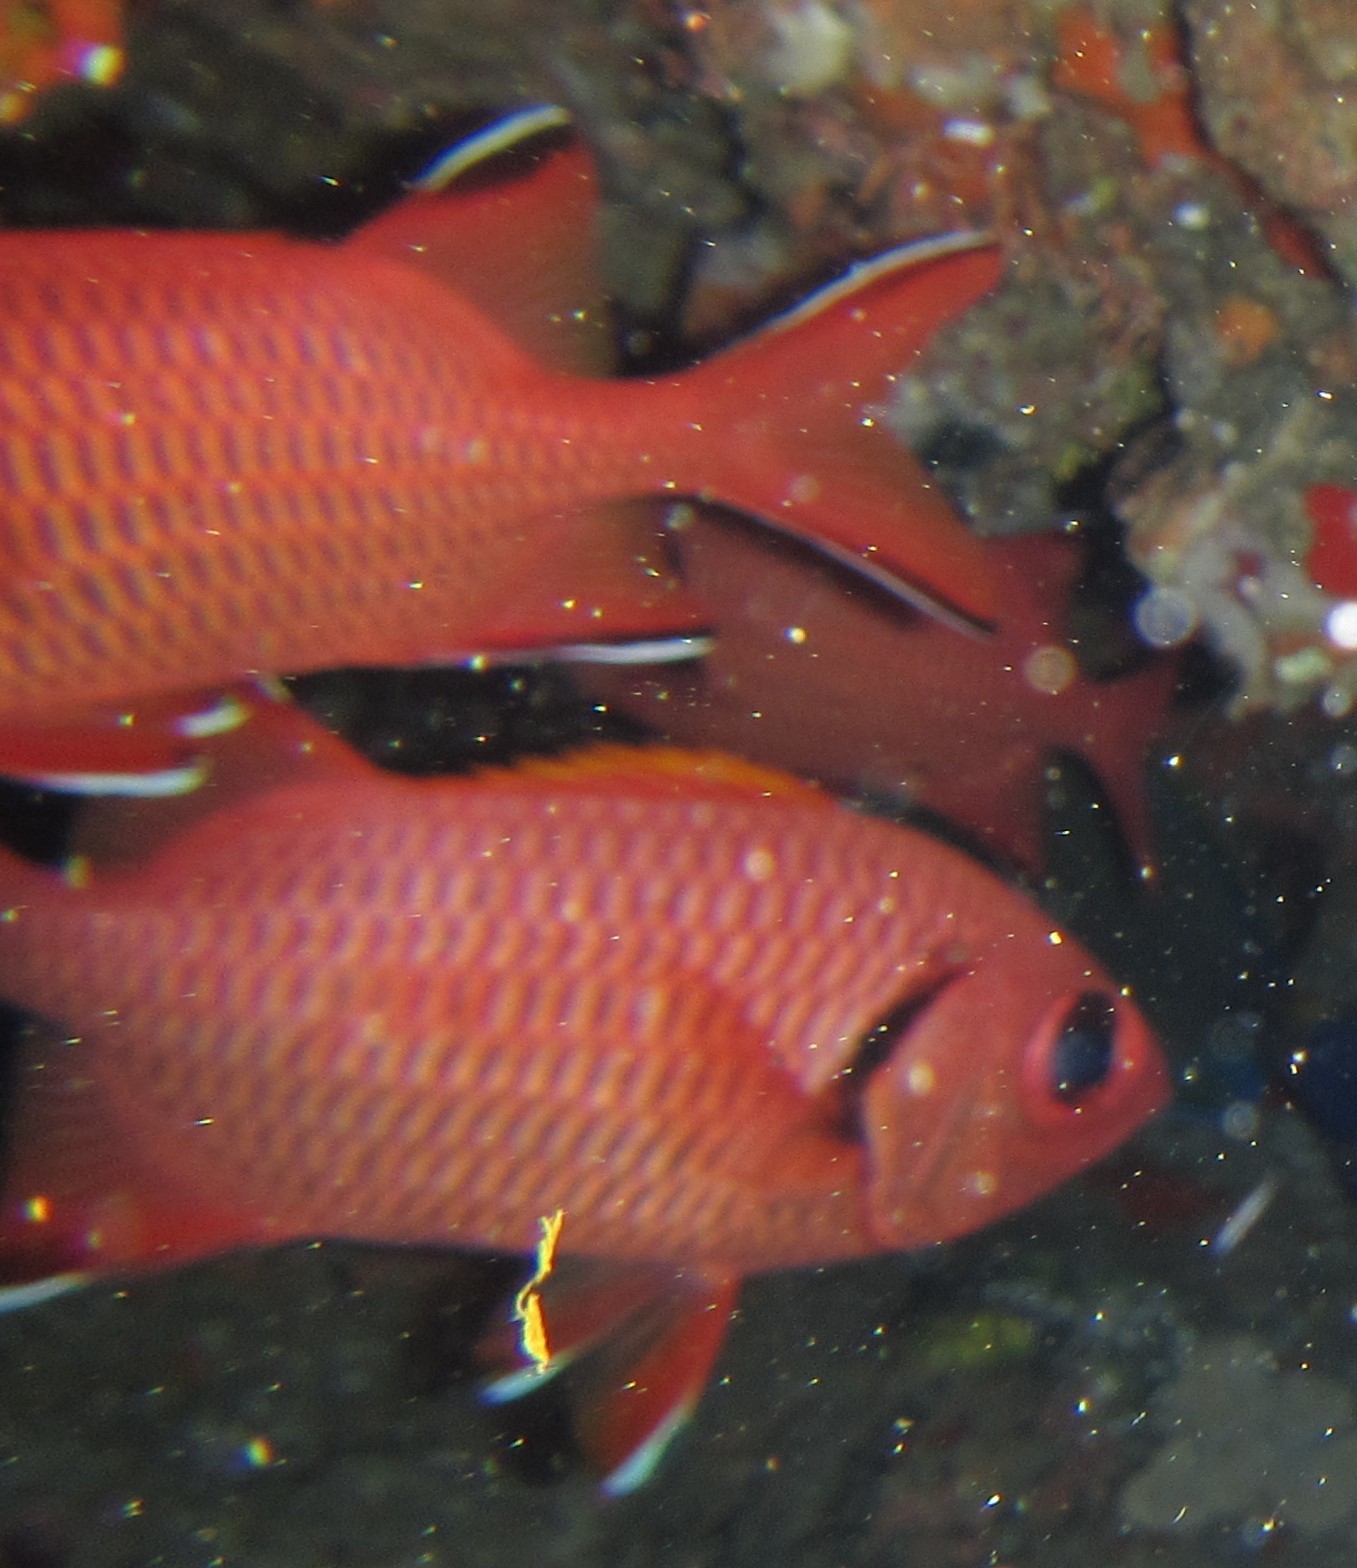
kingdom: Animalia
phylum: Chordata
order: Beryciformes
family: Holocentridae
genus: Myripristis
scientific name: Myripristis murdjan
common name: Big-eye soldierfish
